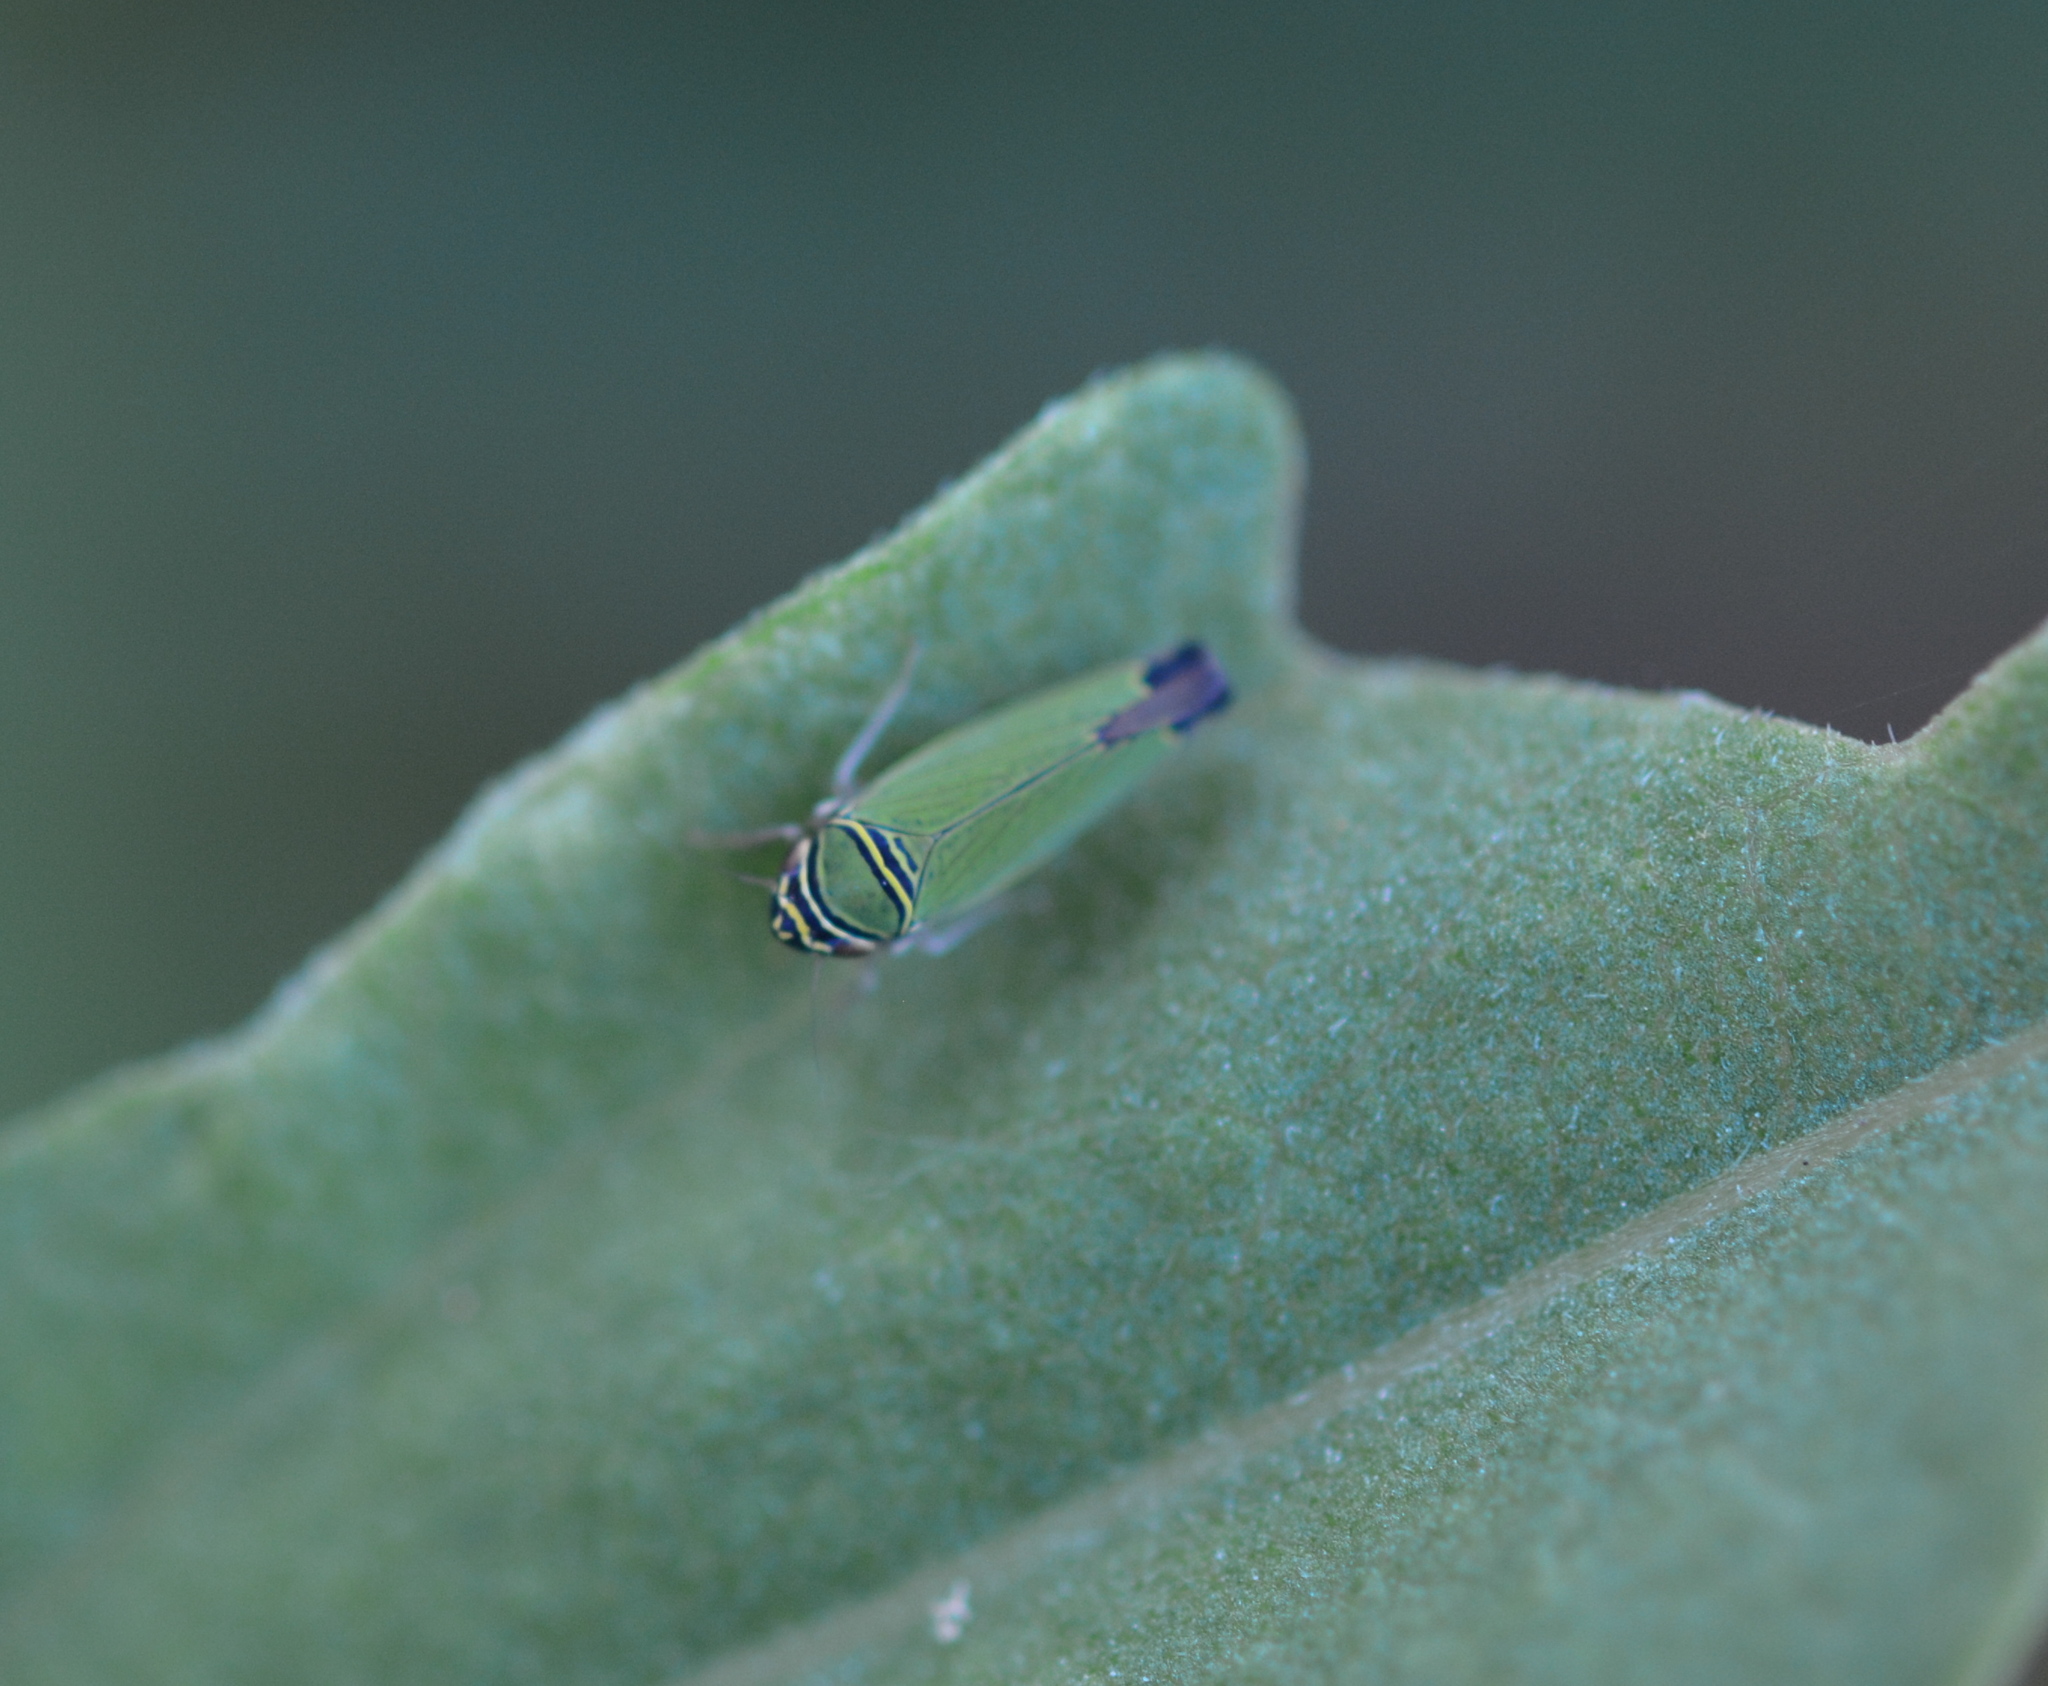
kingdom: Animalia
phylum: Arthropoda
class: Insecta
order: Hemiptera
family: Cicadellidae
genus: Tylozygus
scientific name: Tylozygus geometricus
